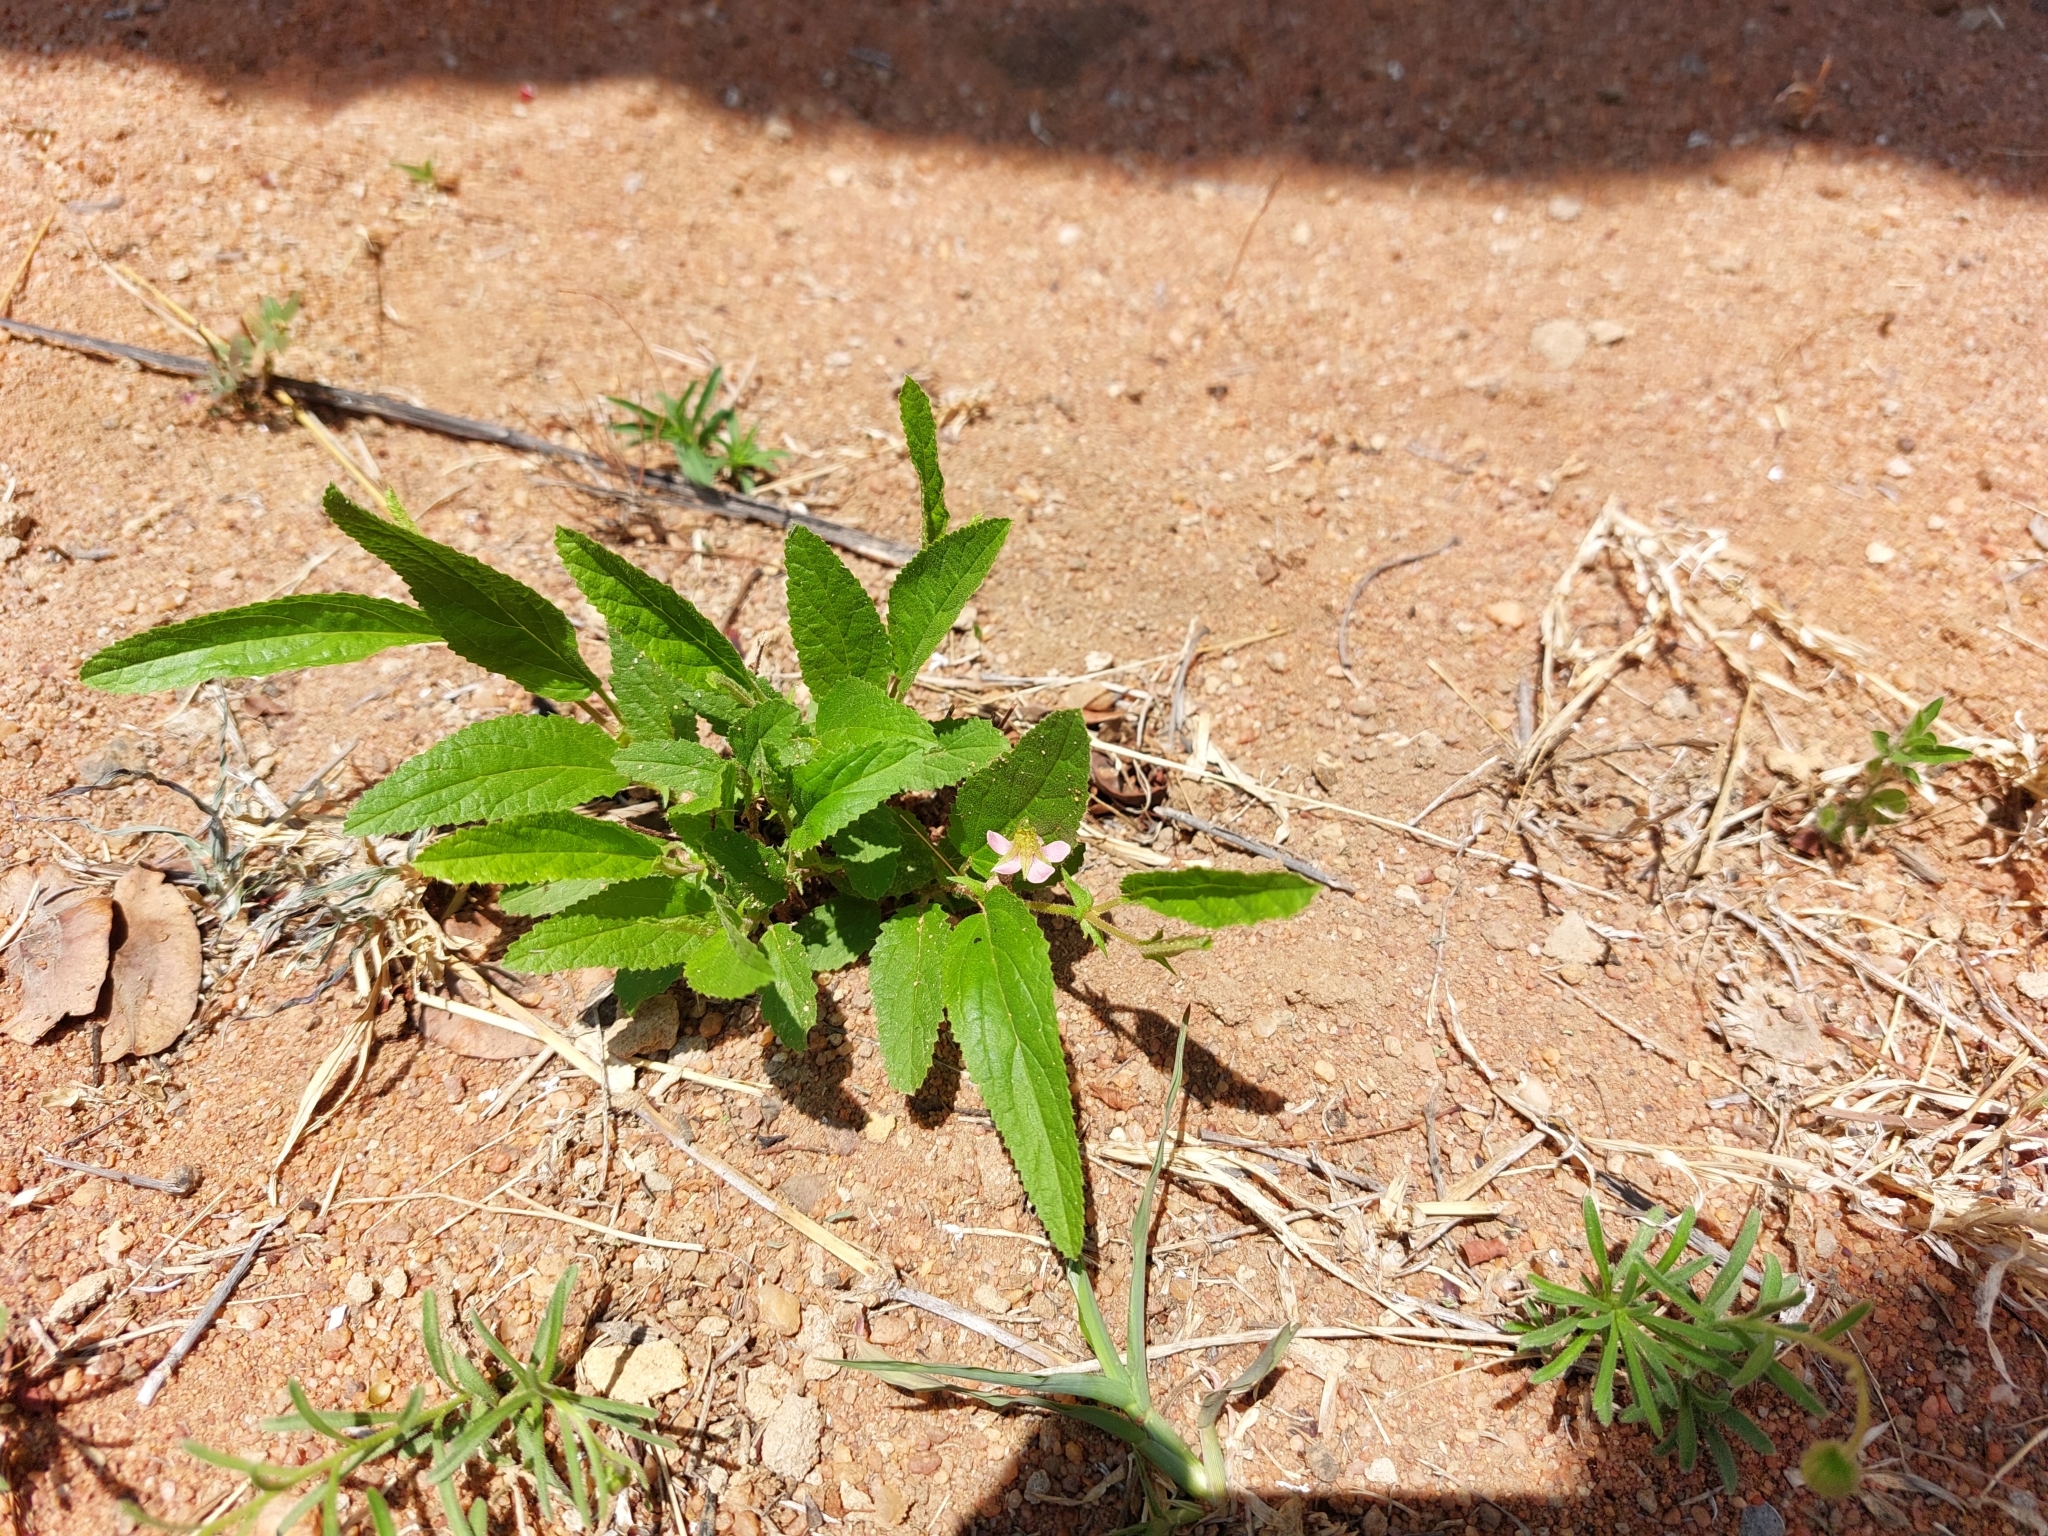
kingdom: Plantae
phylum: Tracheophyta
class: Magnoliopsida
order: Malvales
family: Malvaceae
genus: Hermannia
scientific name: Hermannia boraginiflora
